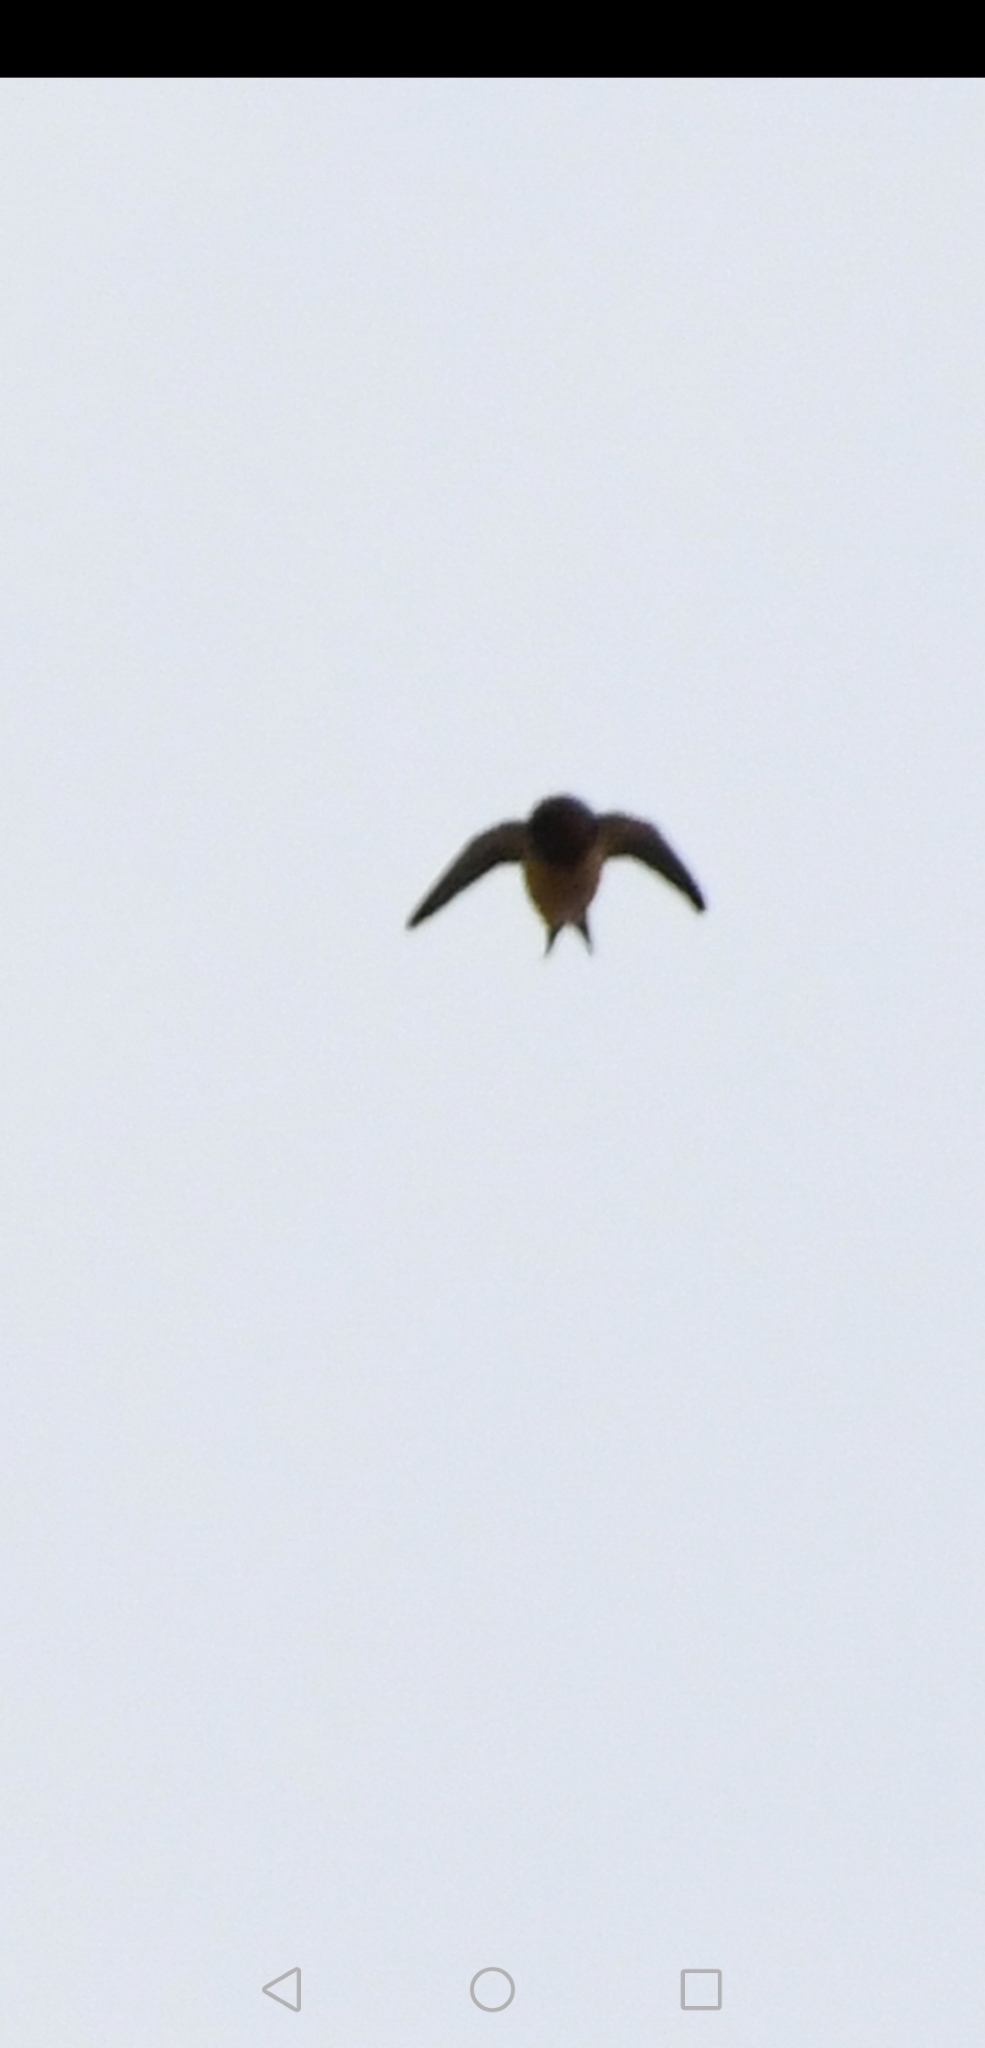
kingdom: Animalia
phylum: Chordata
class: Aves
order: Passeriformes
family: Hirundinidae
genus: Hirundo
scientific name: Hirundo rustica
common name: Barn swallow
